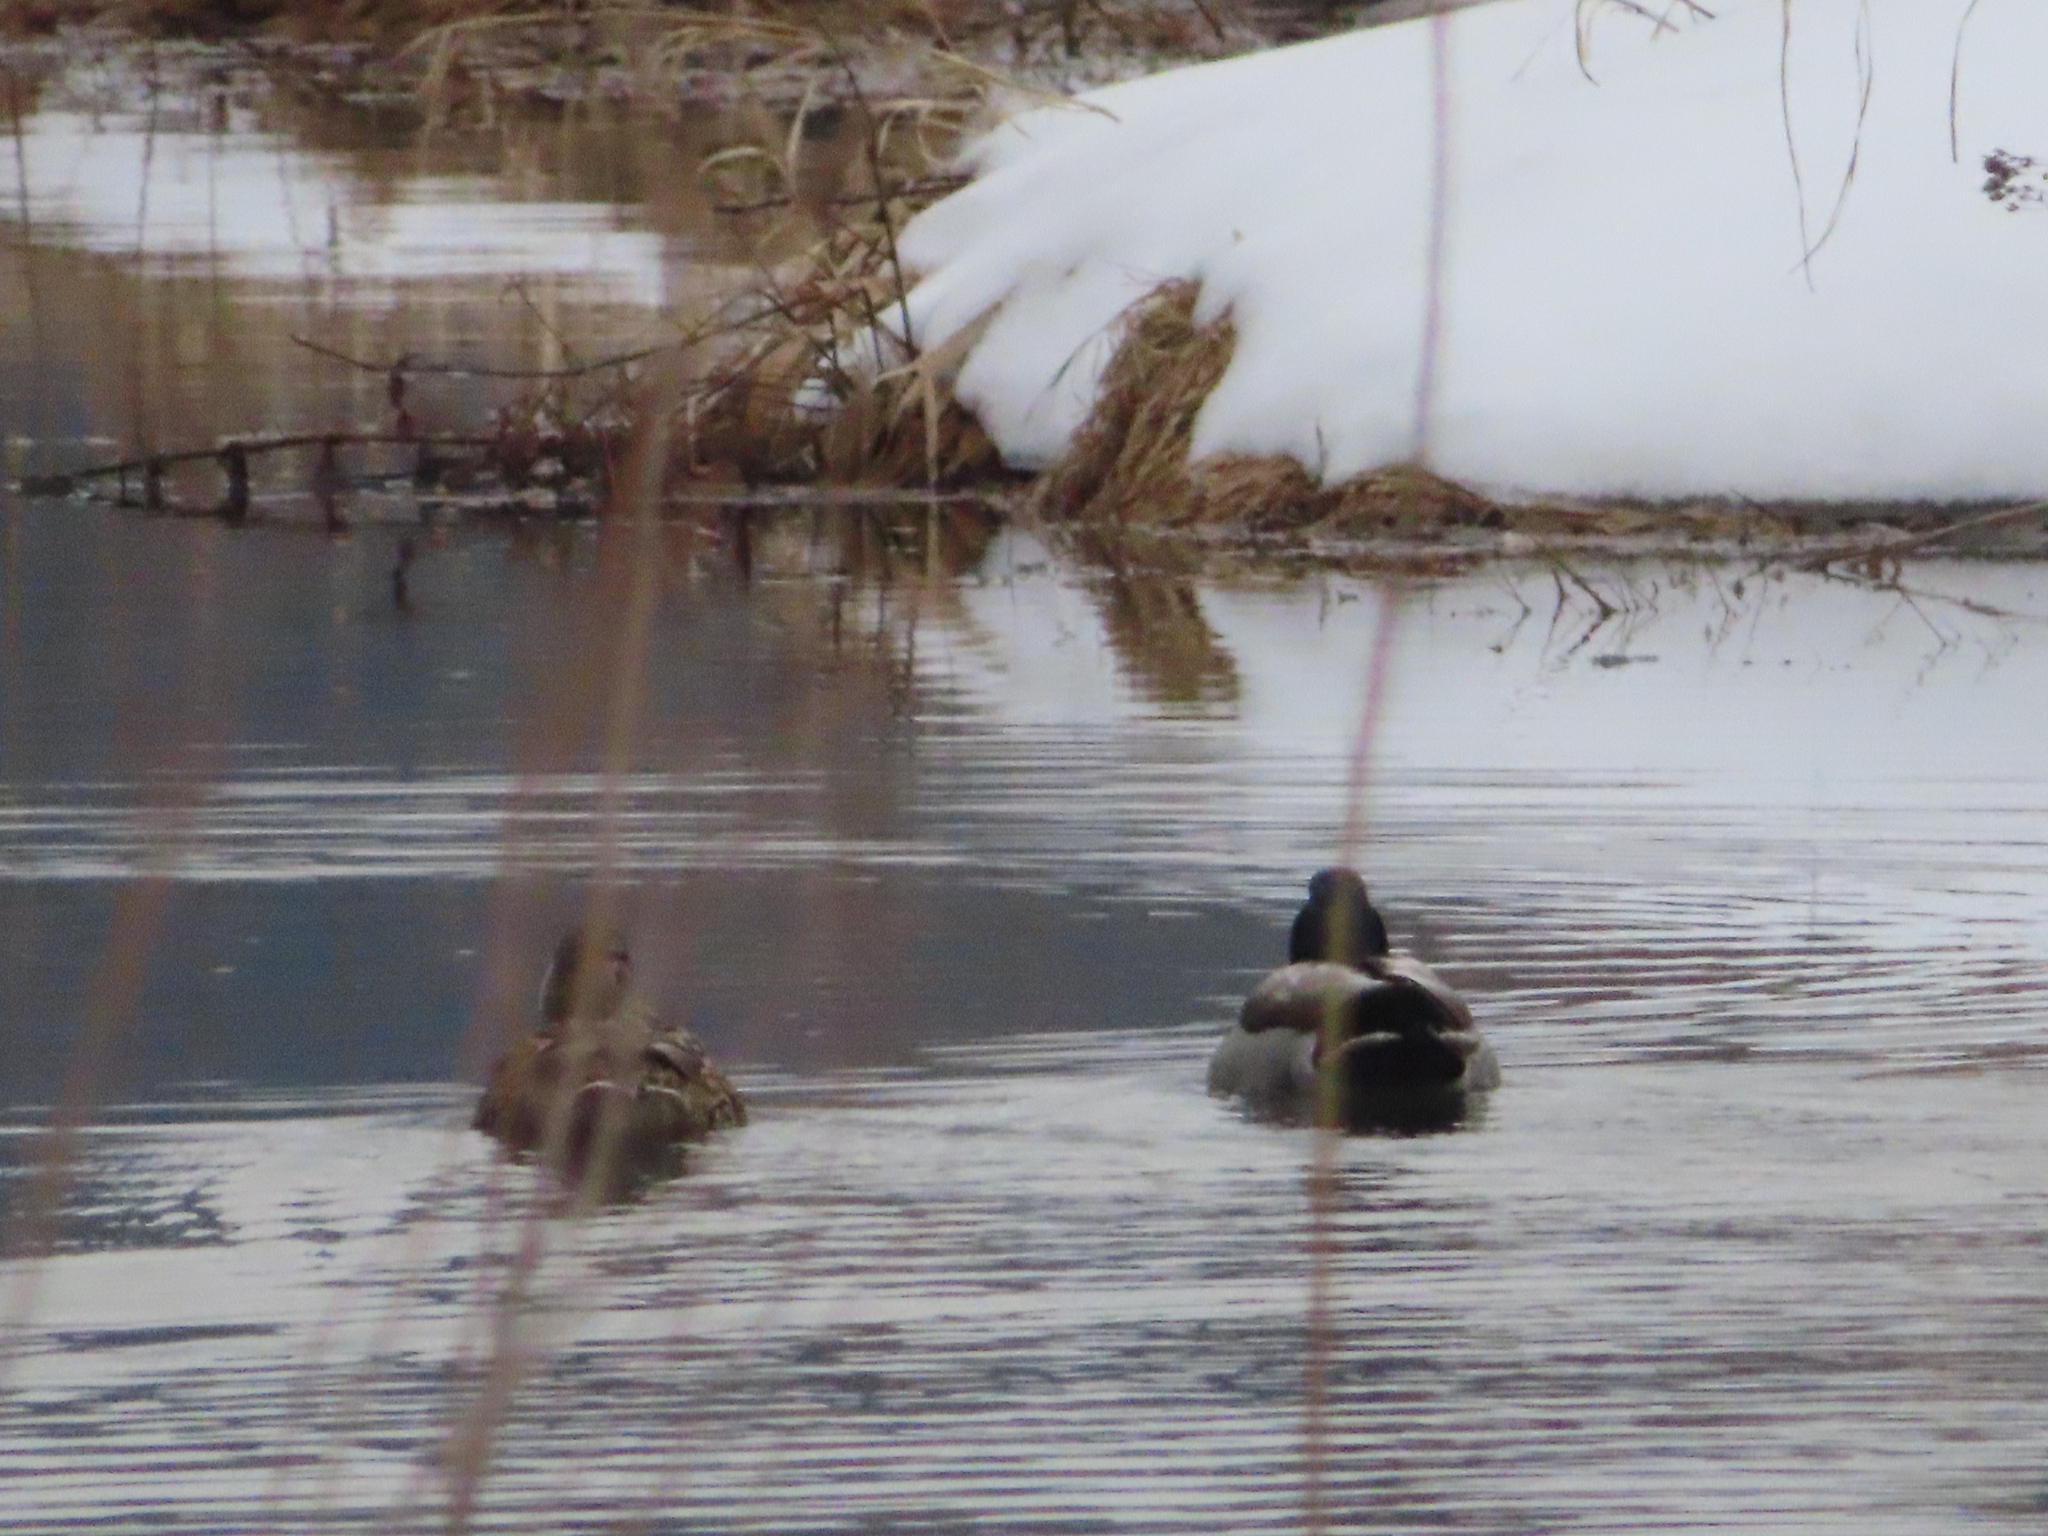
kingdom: Animalia
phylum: Chordata
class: Aves
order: Anseriformes
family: Anatidae
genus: Anas
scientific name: Anas platyrhynchos
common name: Mallard
